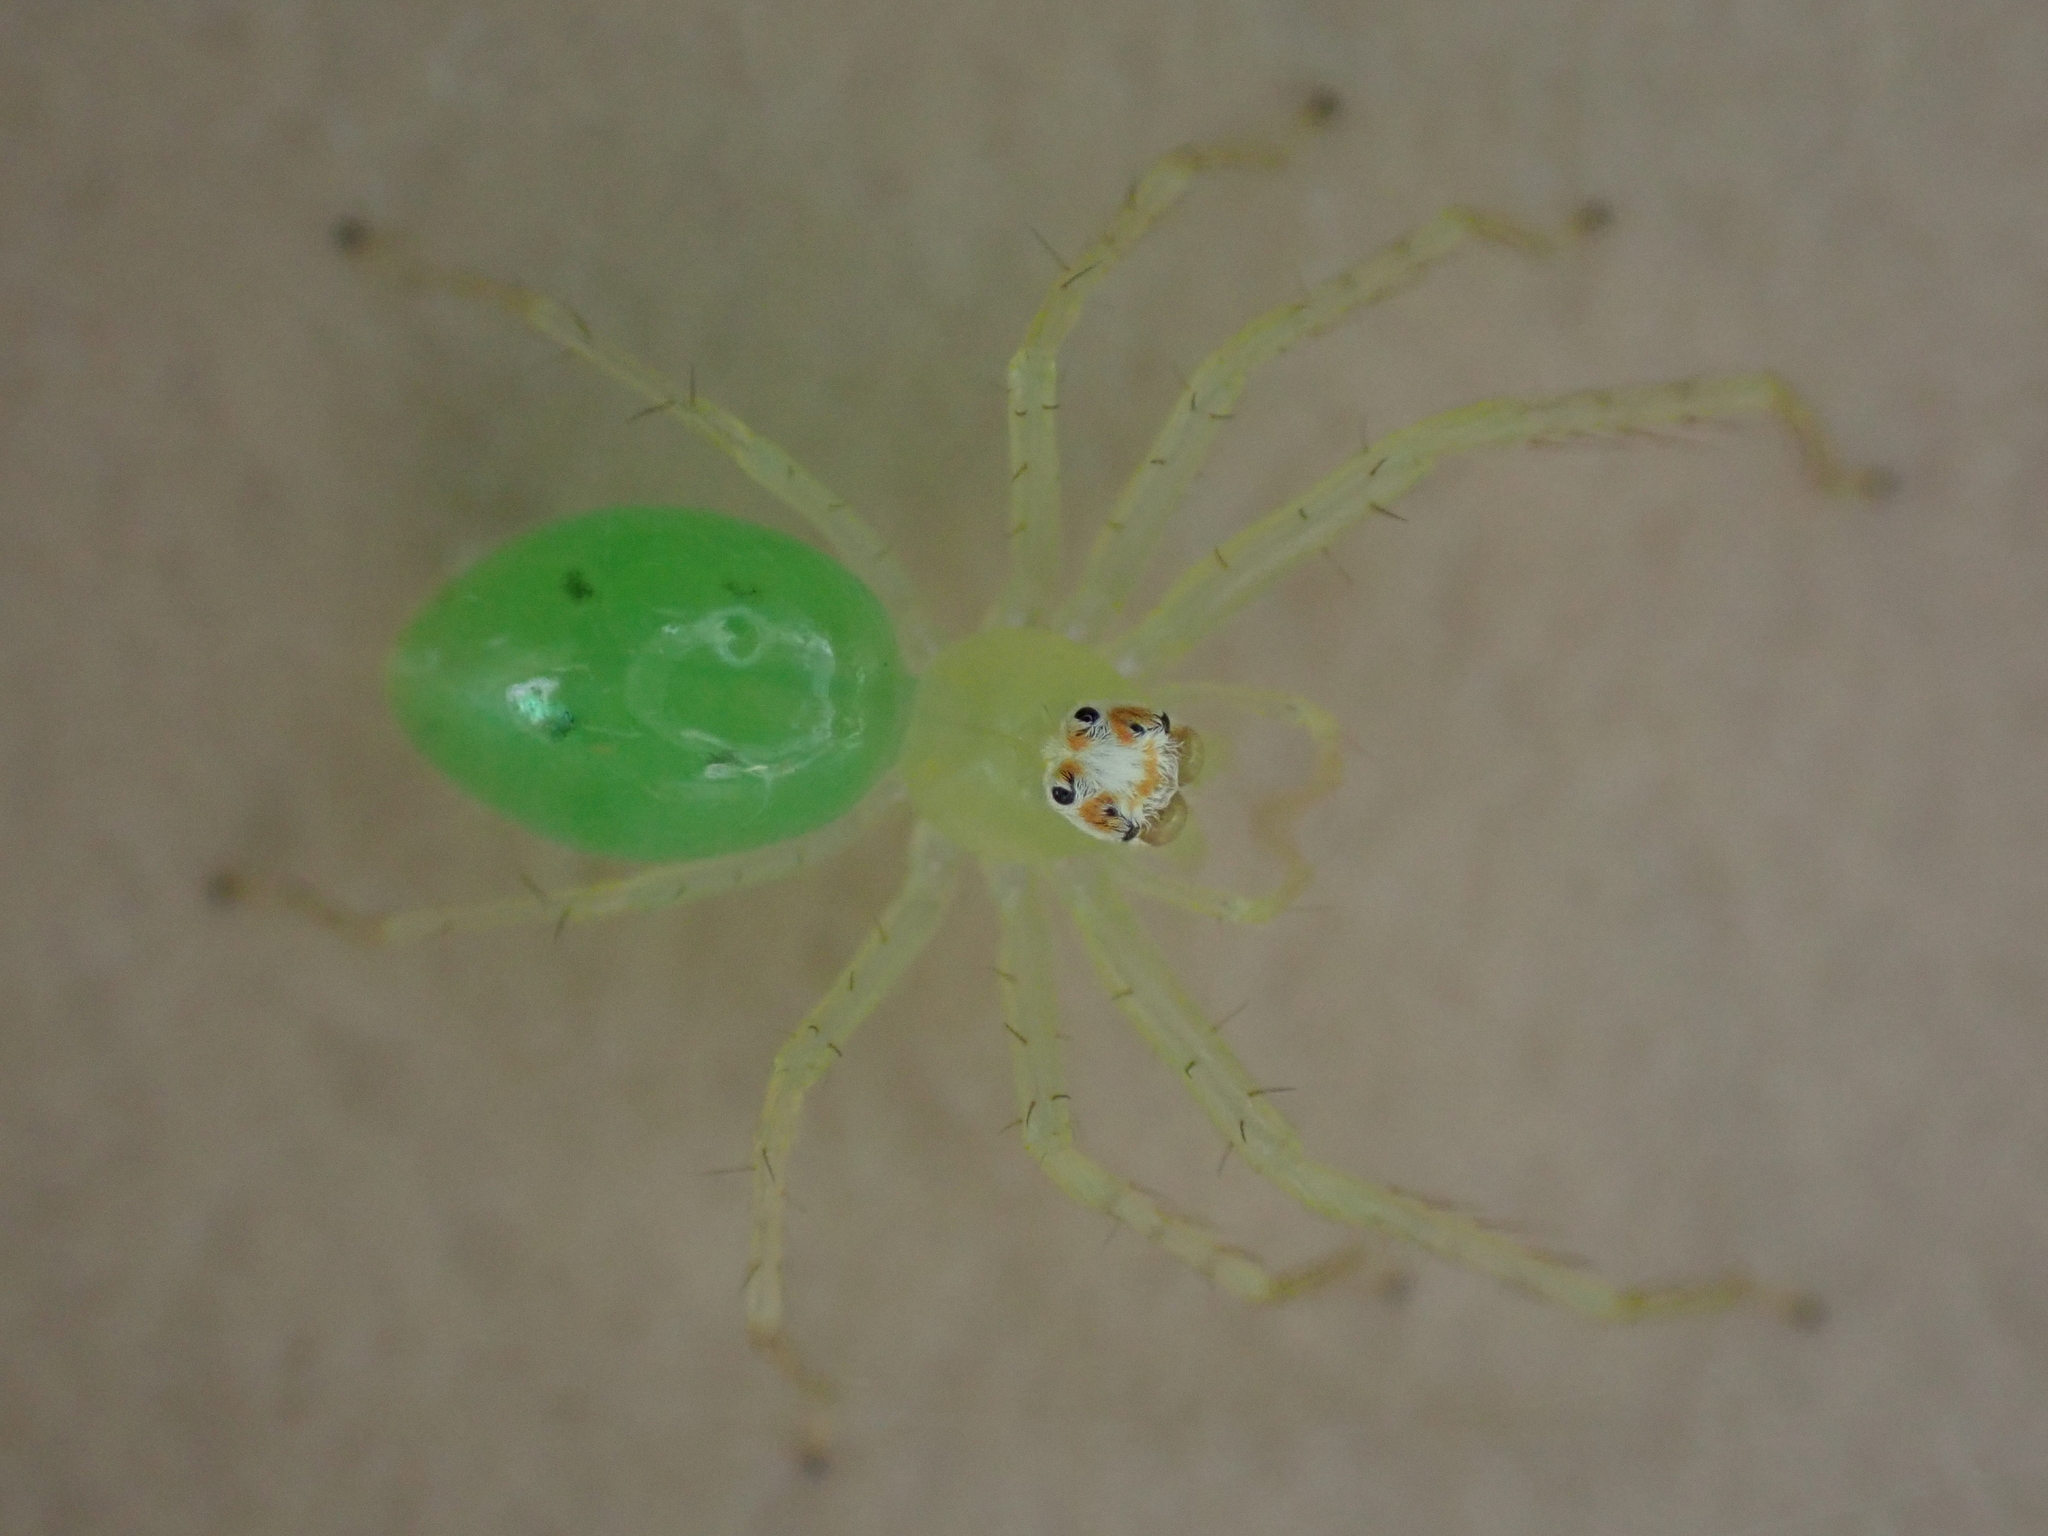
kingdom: Animalia
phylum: Arthropoda
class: Arachnida
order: Araneae
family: Salticidae
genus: Lyssomanes
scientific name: Lyssomanes viridis
